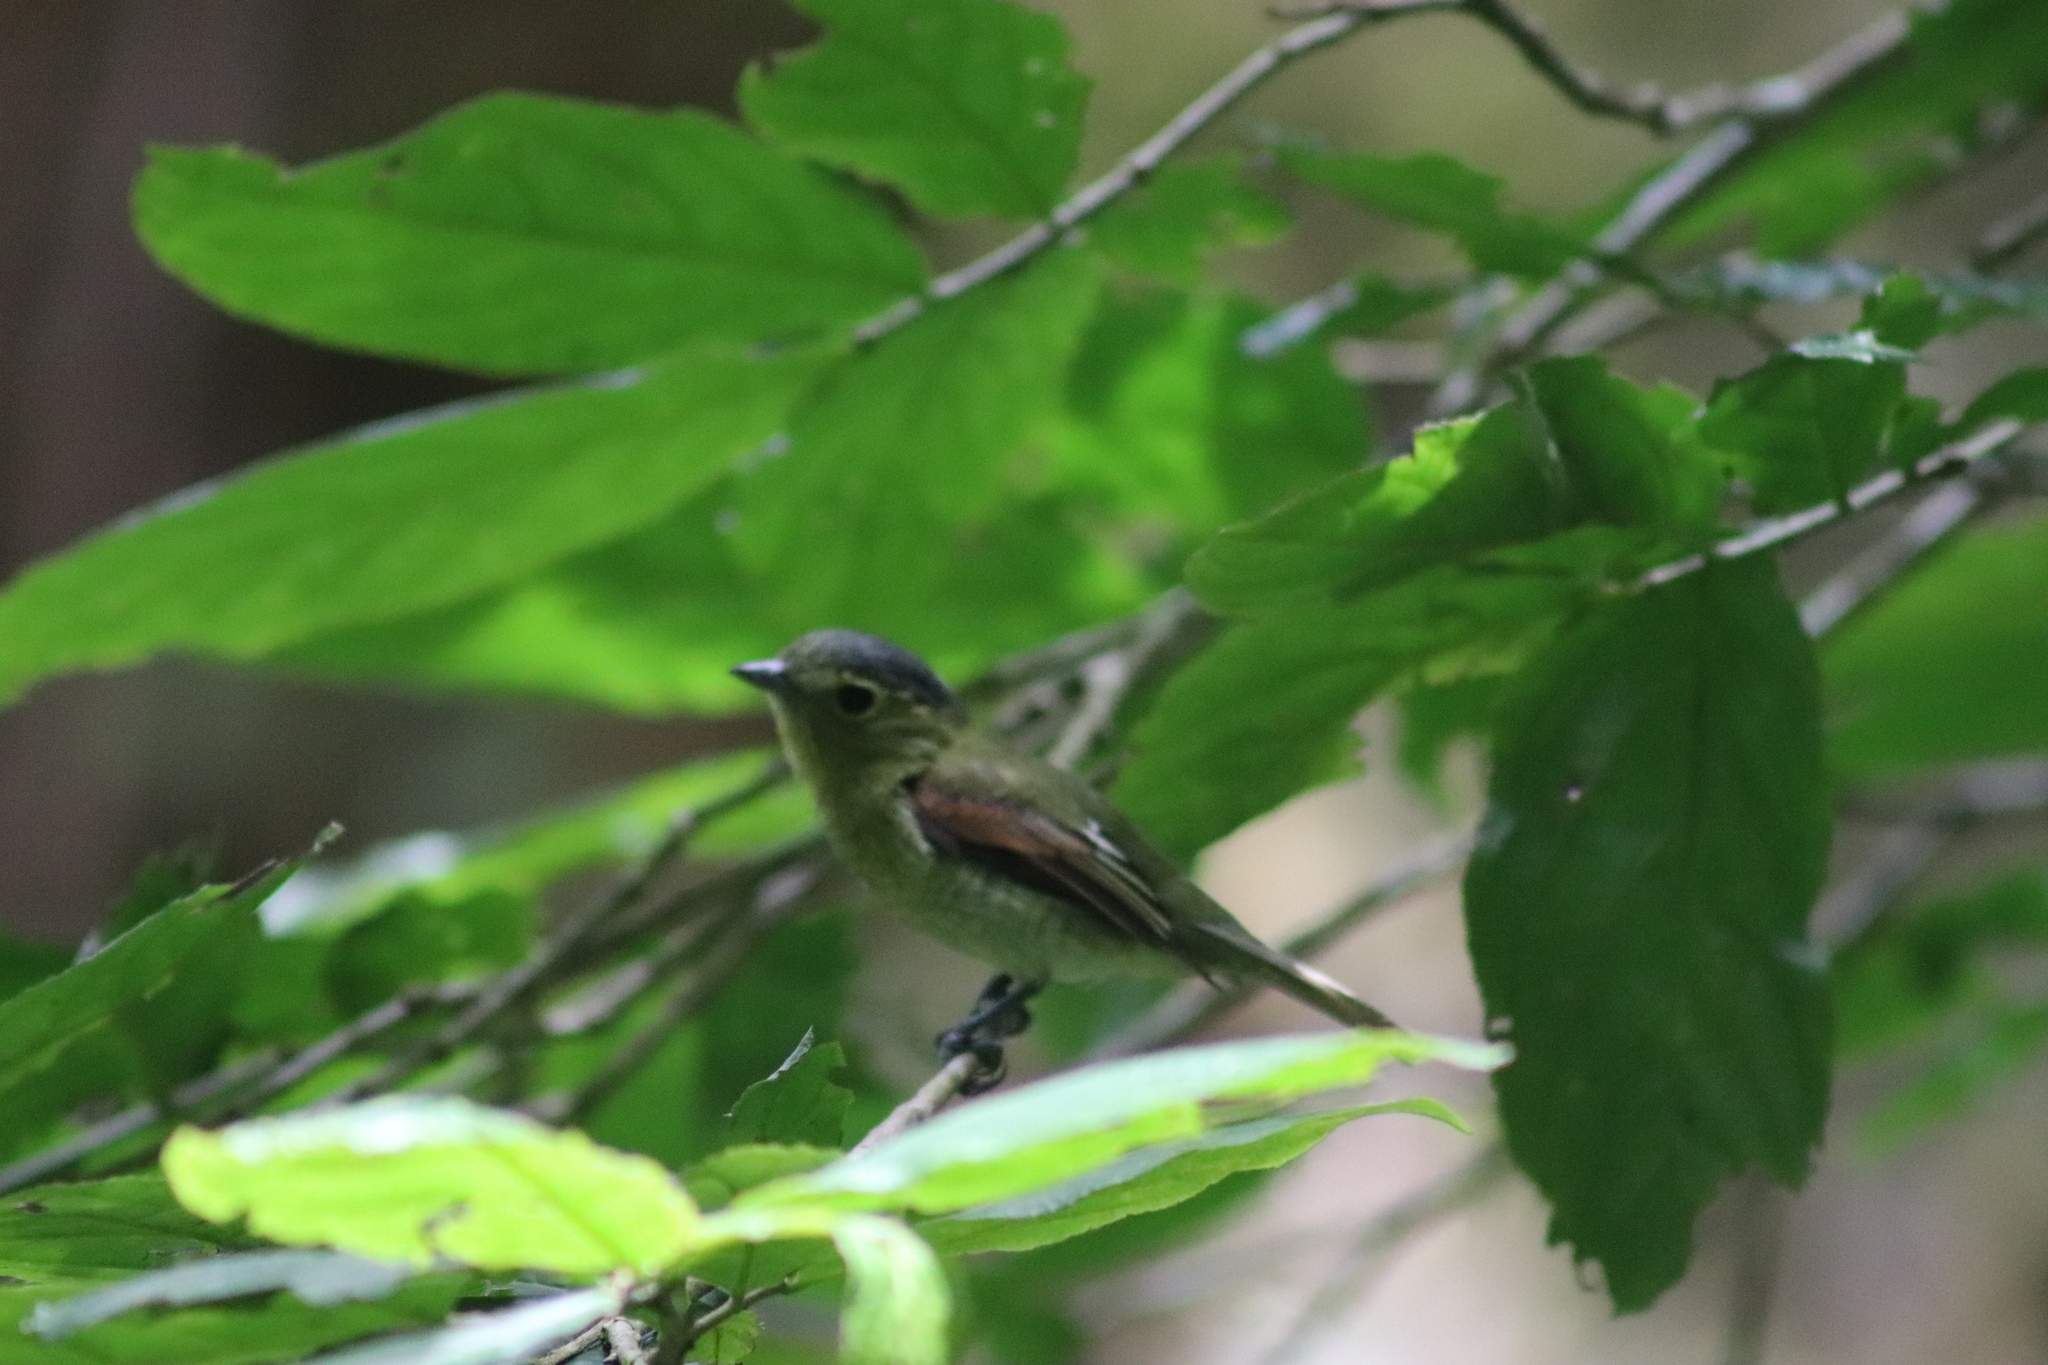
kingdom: Animalia
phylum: Chordata
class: Aves
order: Passeriformes
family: Cotingidae
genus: Pachyramphus
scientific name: Pachyramphus versicolor
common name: Barred becard
